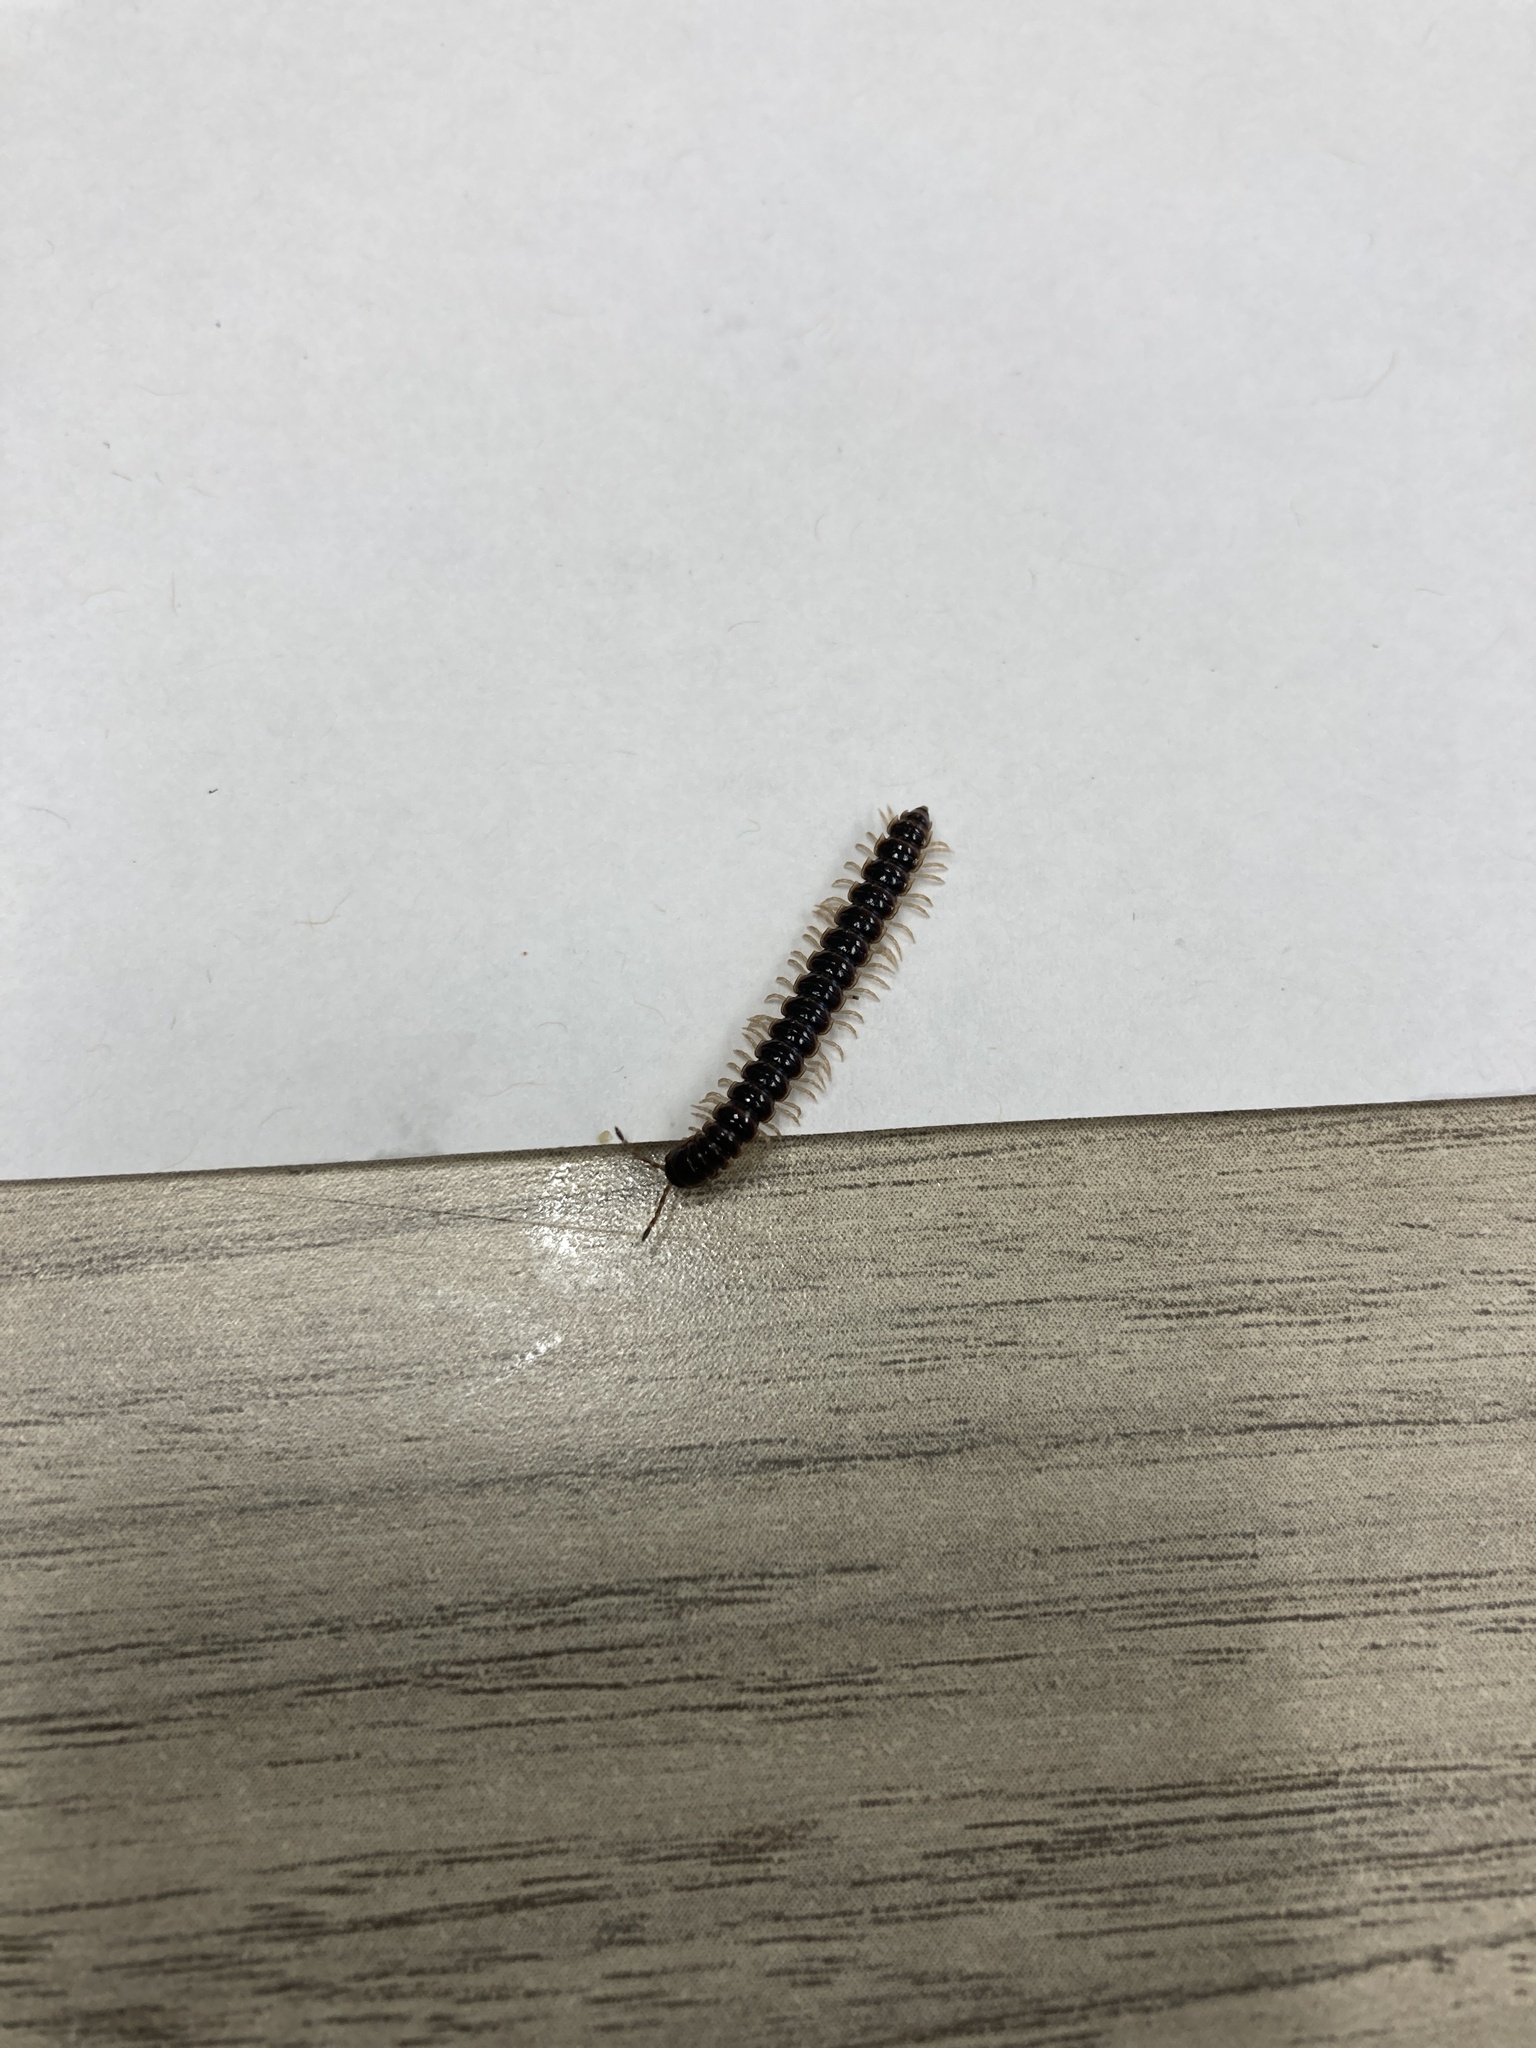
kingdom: Animalia
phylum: Arthropoda
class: Diplopoda
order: Polydesmida
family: Paradoxosomatidae
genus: Oxidus
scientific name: Oxidus gracilis
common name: Greenhouse millipede
